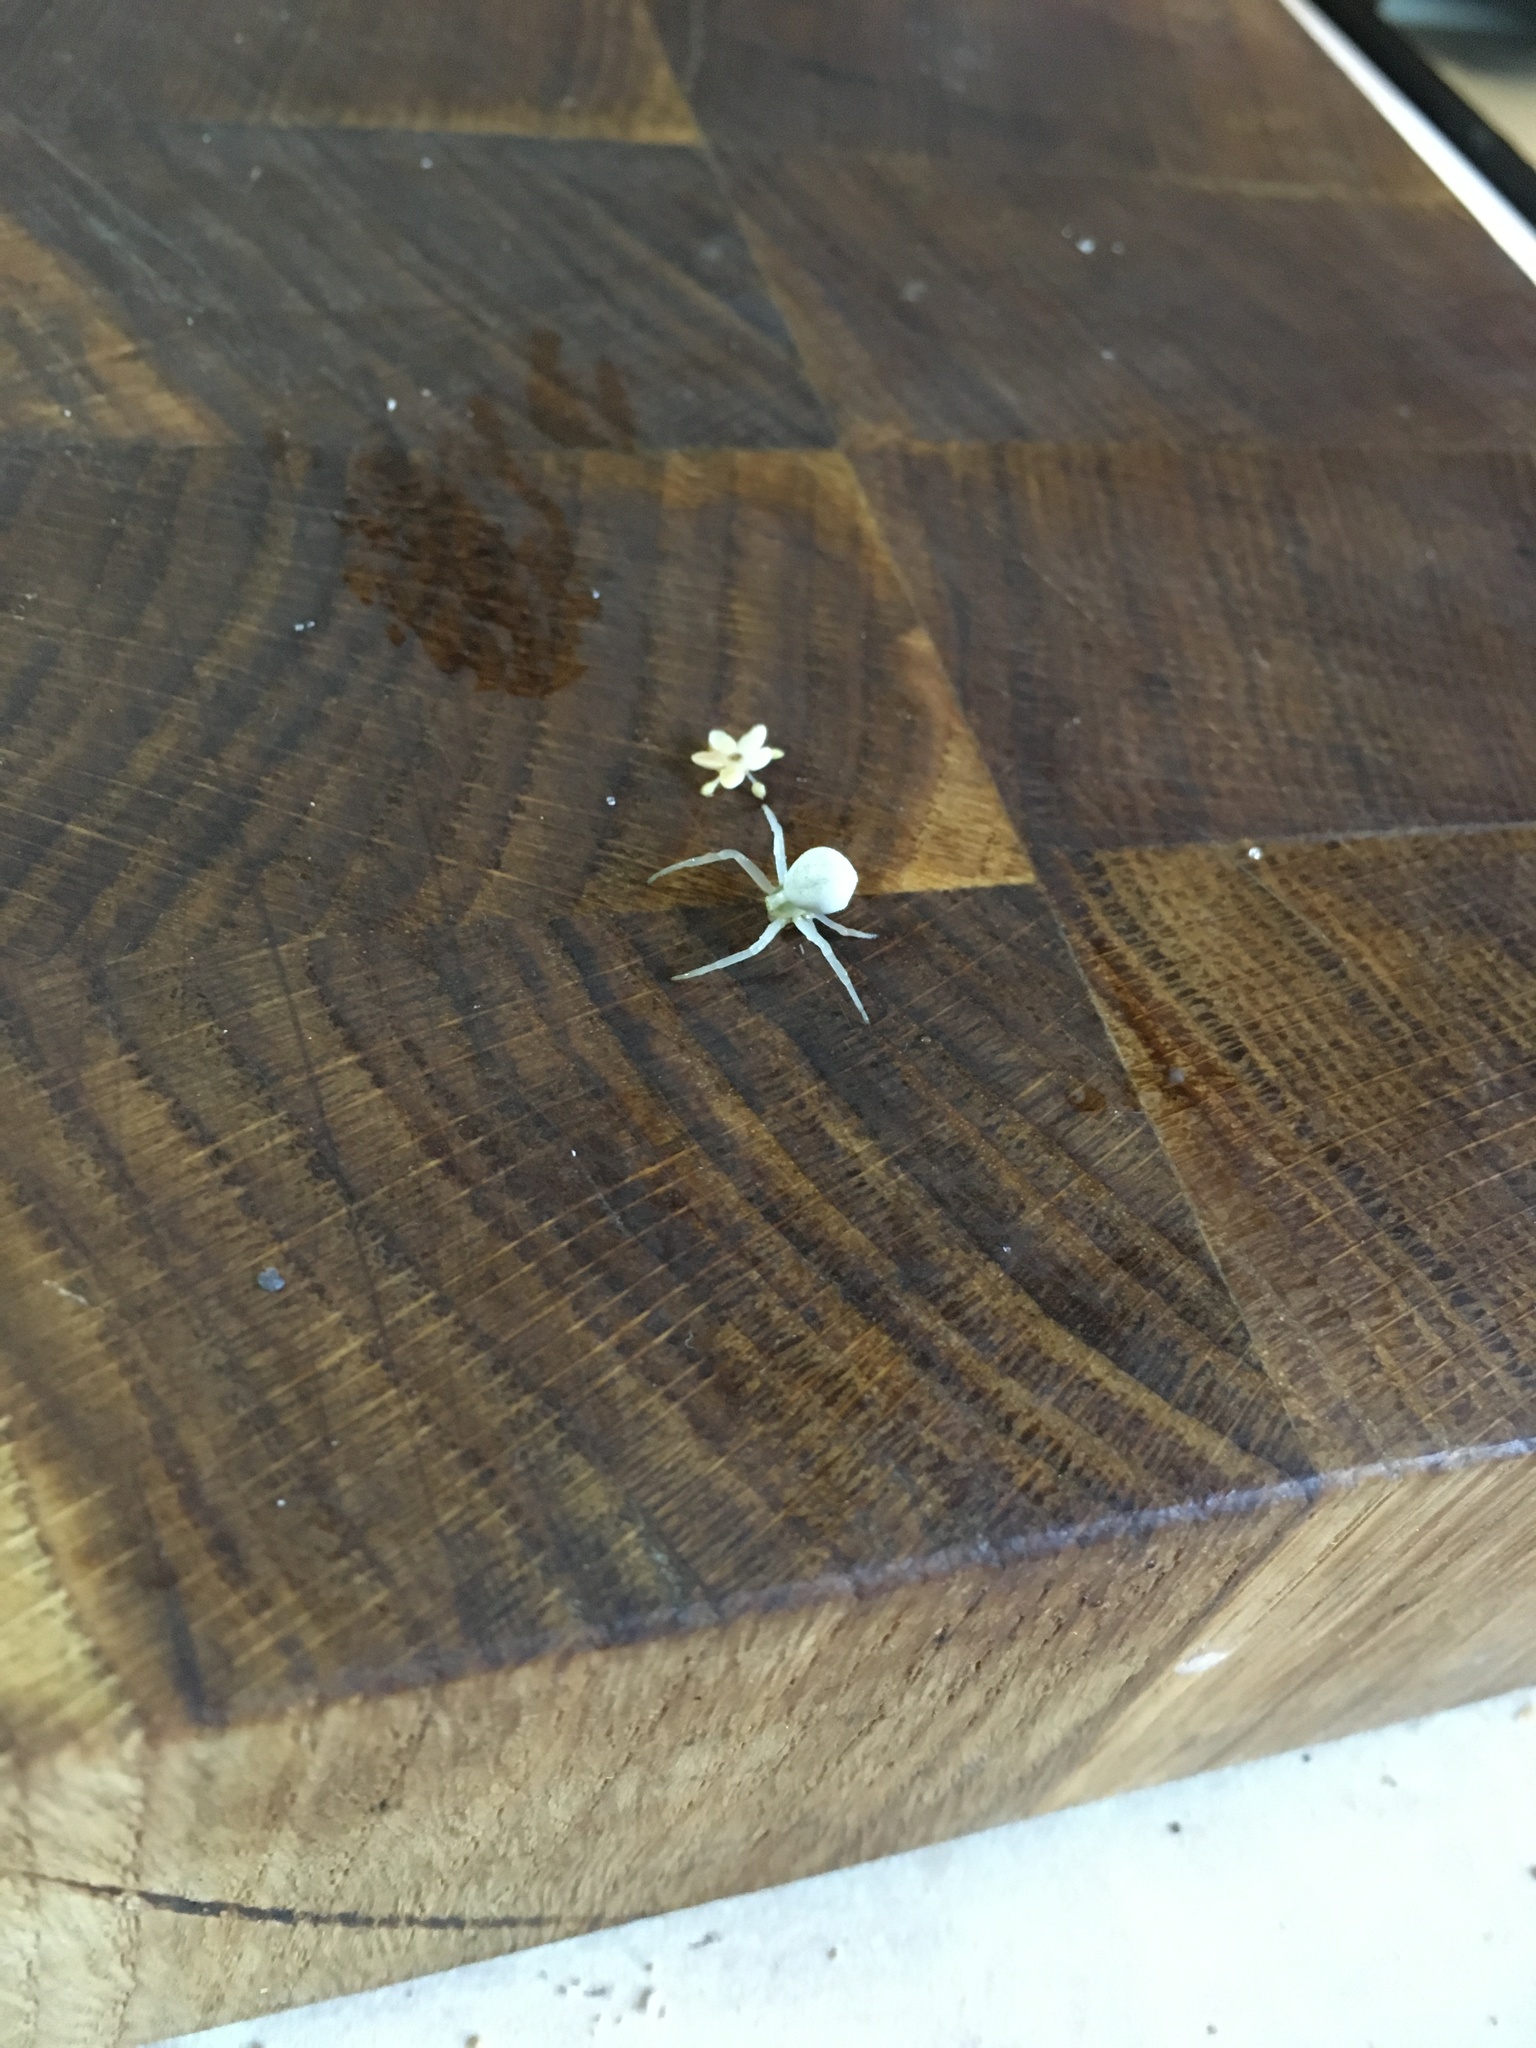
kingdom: Animalia
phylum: Arthropoda
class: Arachnida
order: Araneae
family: Thomisidae
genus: Misumena
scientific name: Misumena vatia
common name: Goldenrod crab spider
